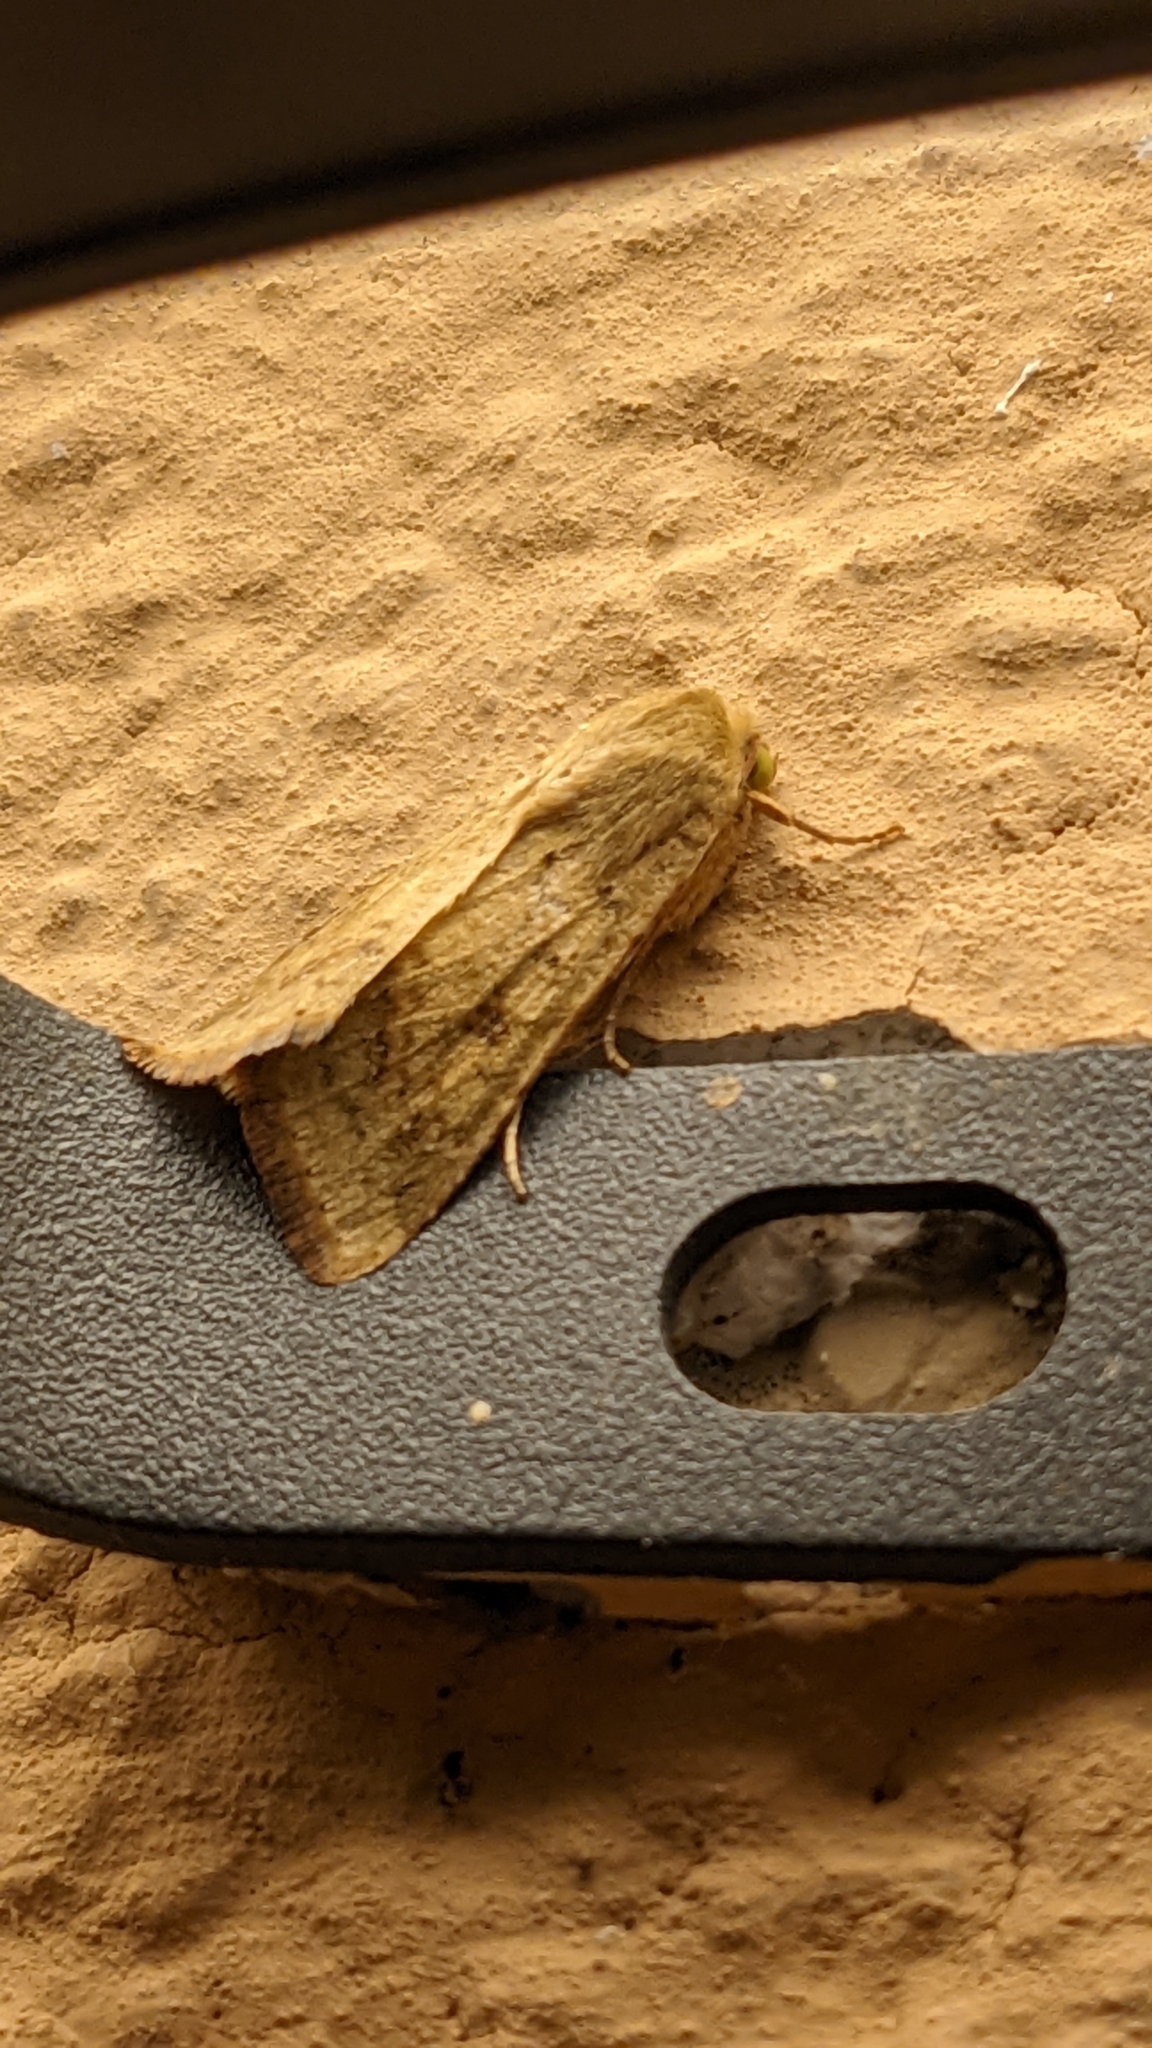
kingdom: Animalia
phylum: Arthropoda
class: Insecta
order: Lepidoptera
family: Noctuidae
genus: Helicoverpa
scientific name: Helicoverpa armigera
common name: Cotton bollworm
